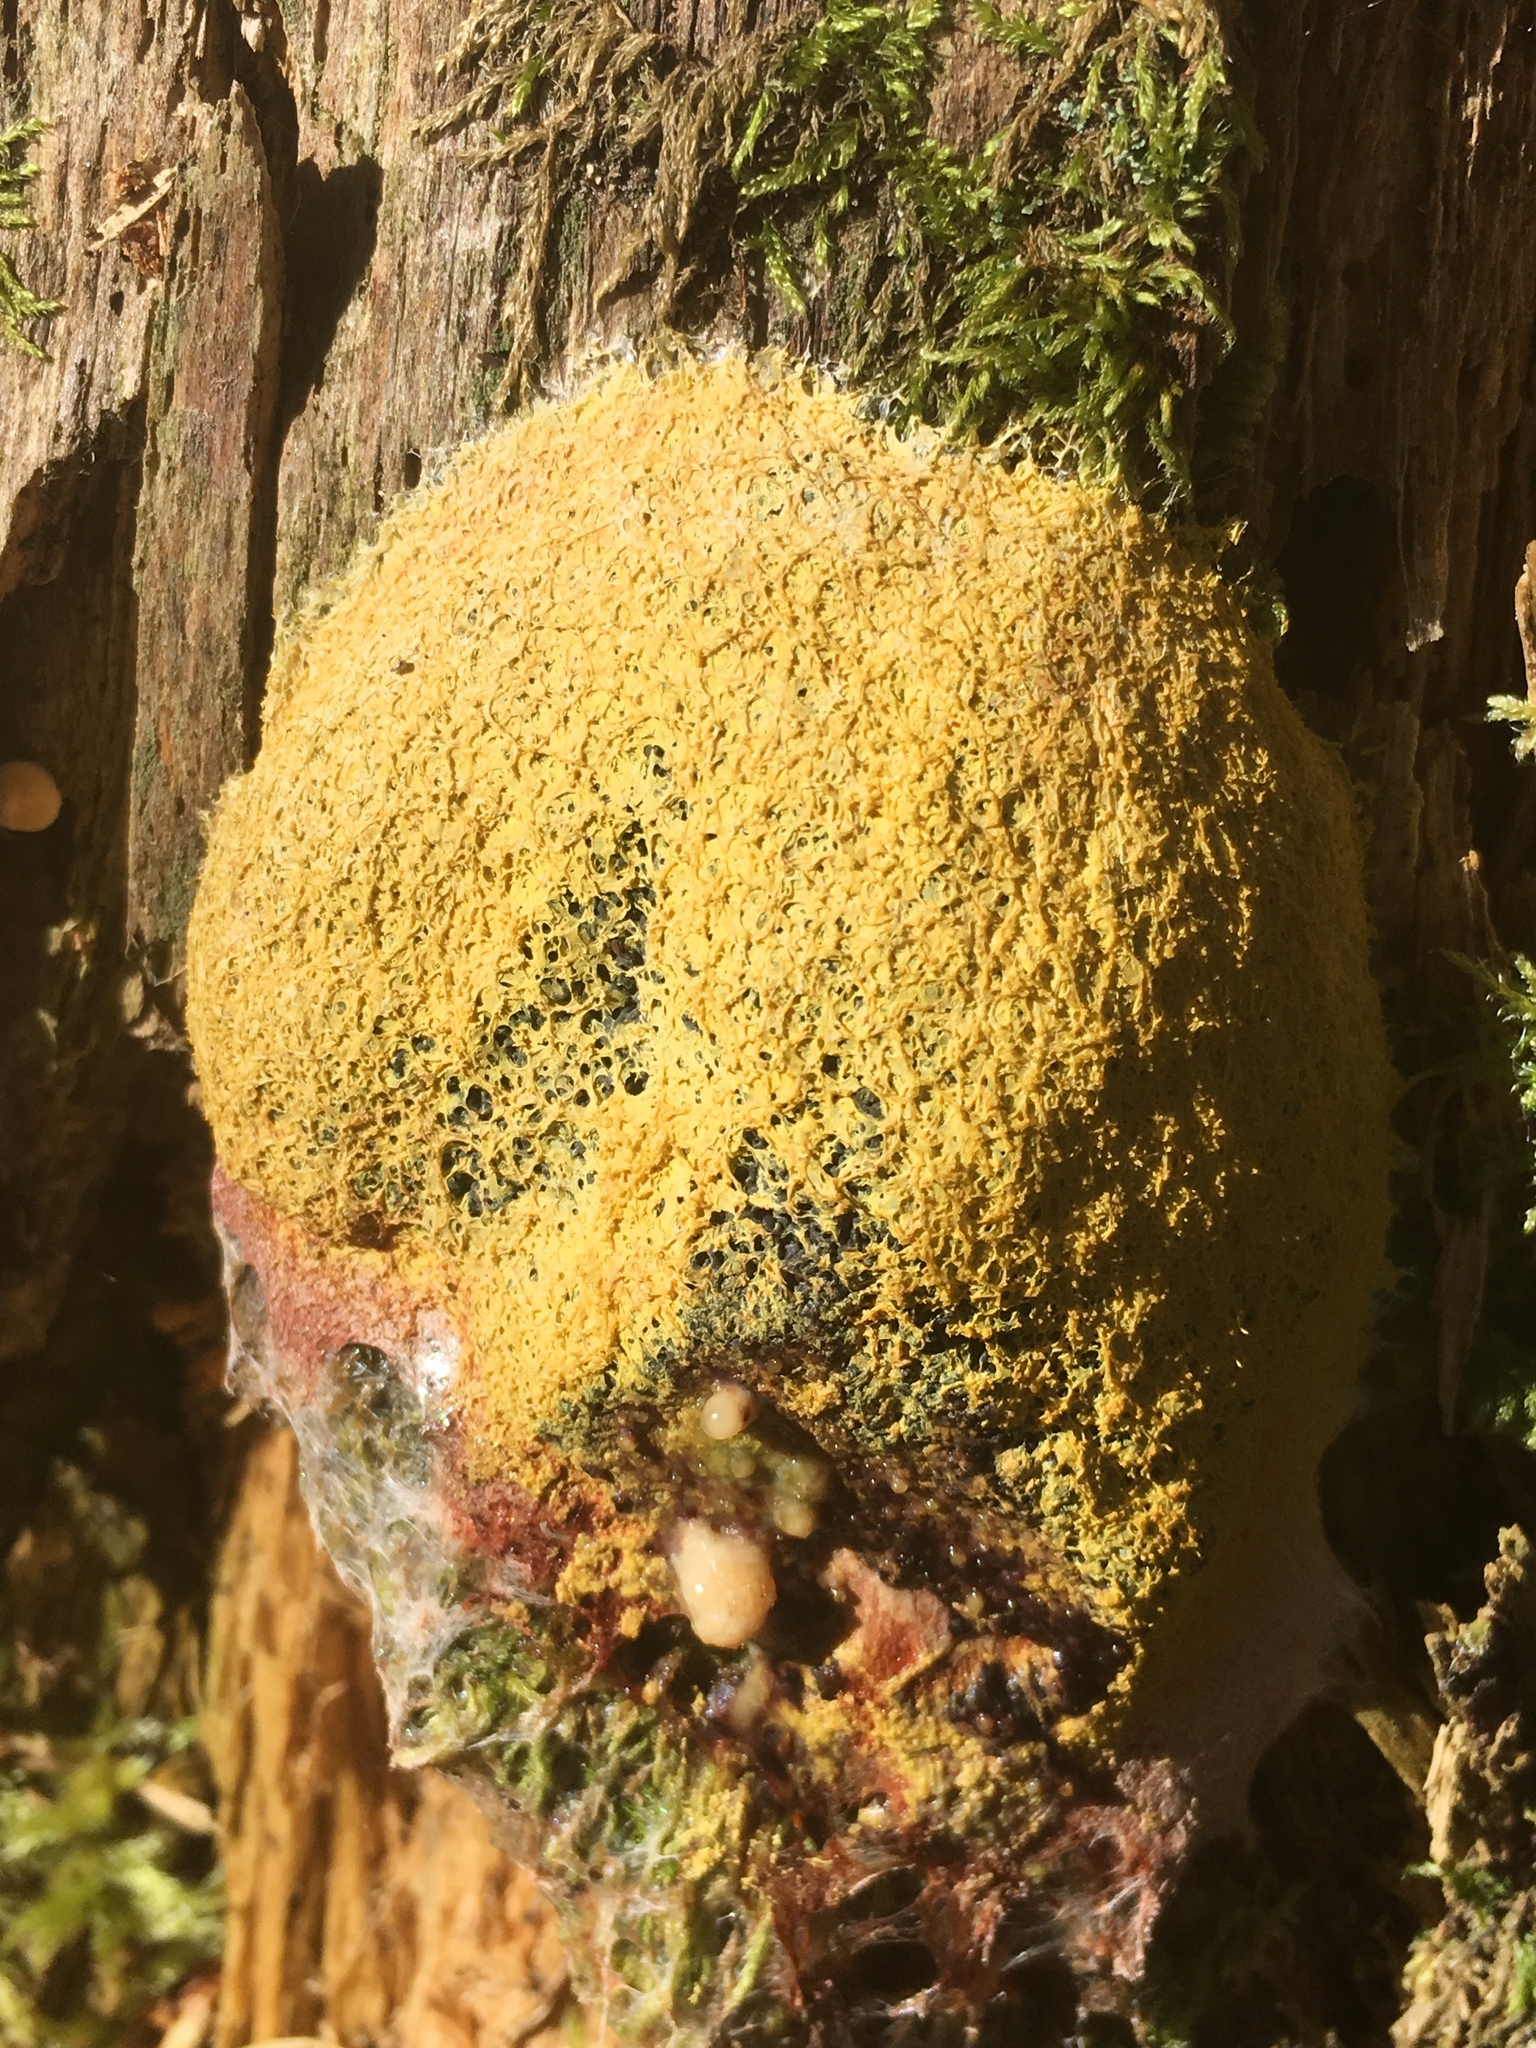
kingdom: Protozoa
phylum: Mycetozoa
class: Myxomycetes
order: Physarales
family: Physaraceae
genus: Fuligo
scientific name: Fuligo septica
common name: Dog vomit slime mold
